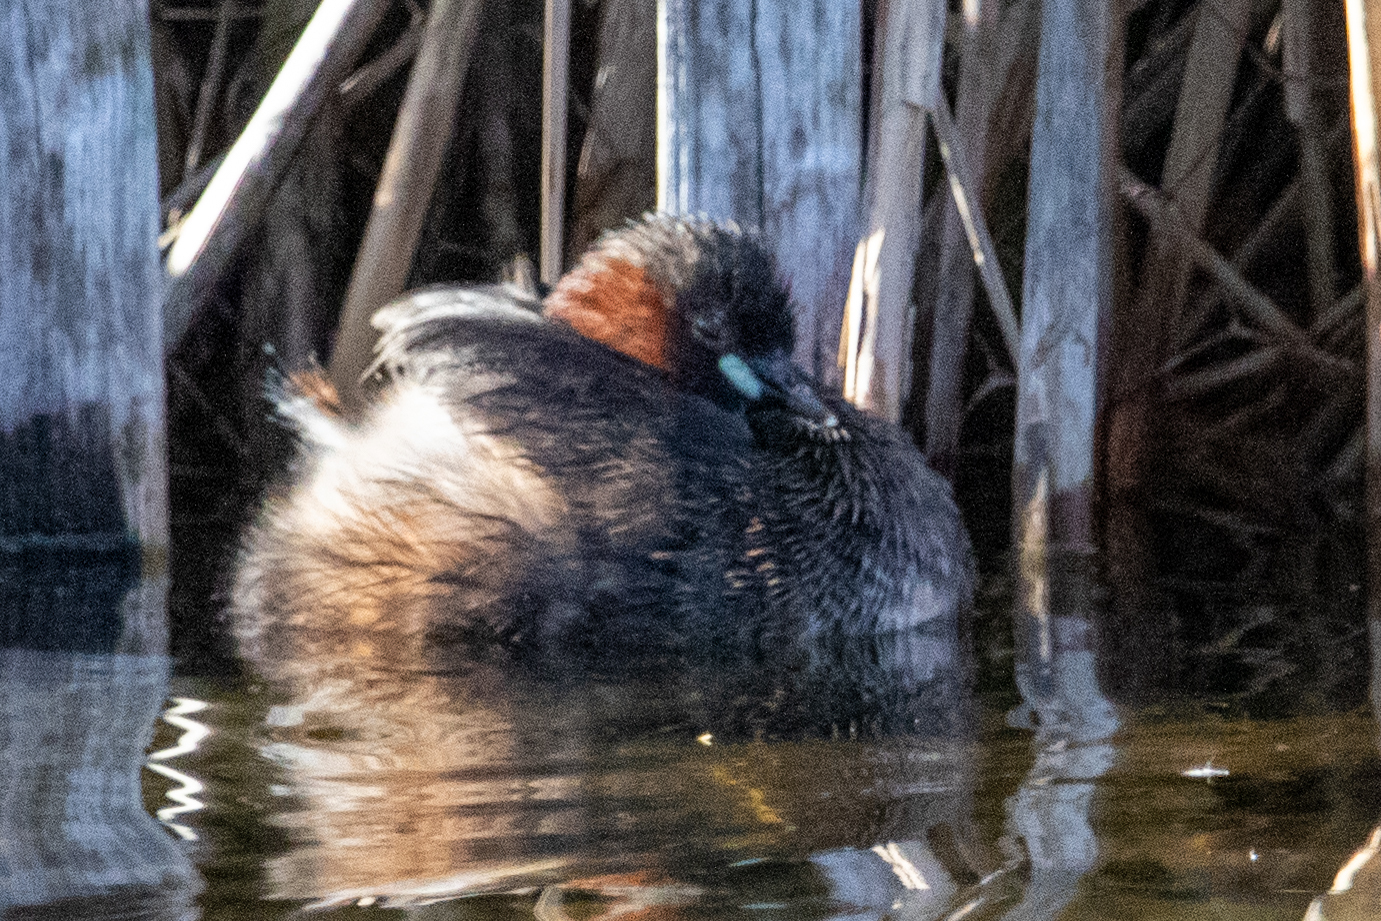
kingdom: Animalia
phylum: Chordata
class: Aves
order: Podicipediformes
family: Podicipedidae
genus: Tachybaptus
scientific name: Tachybaptus ruficollis
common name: Little grebe
